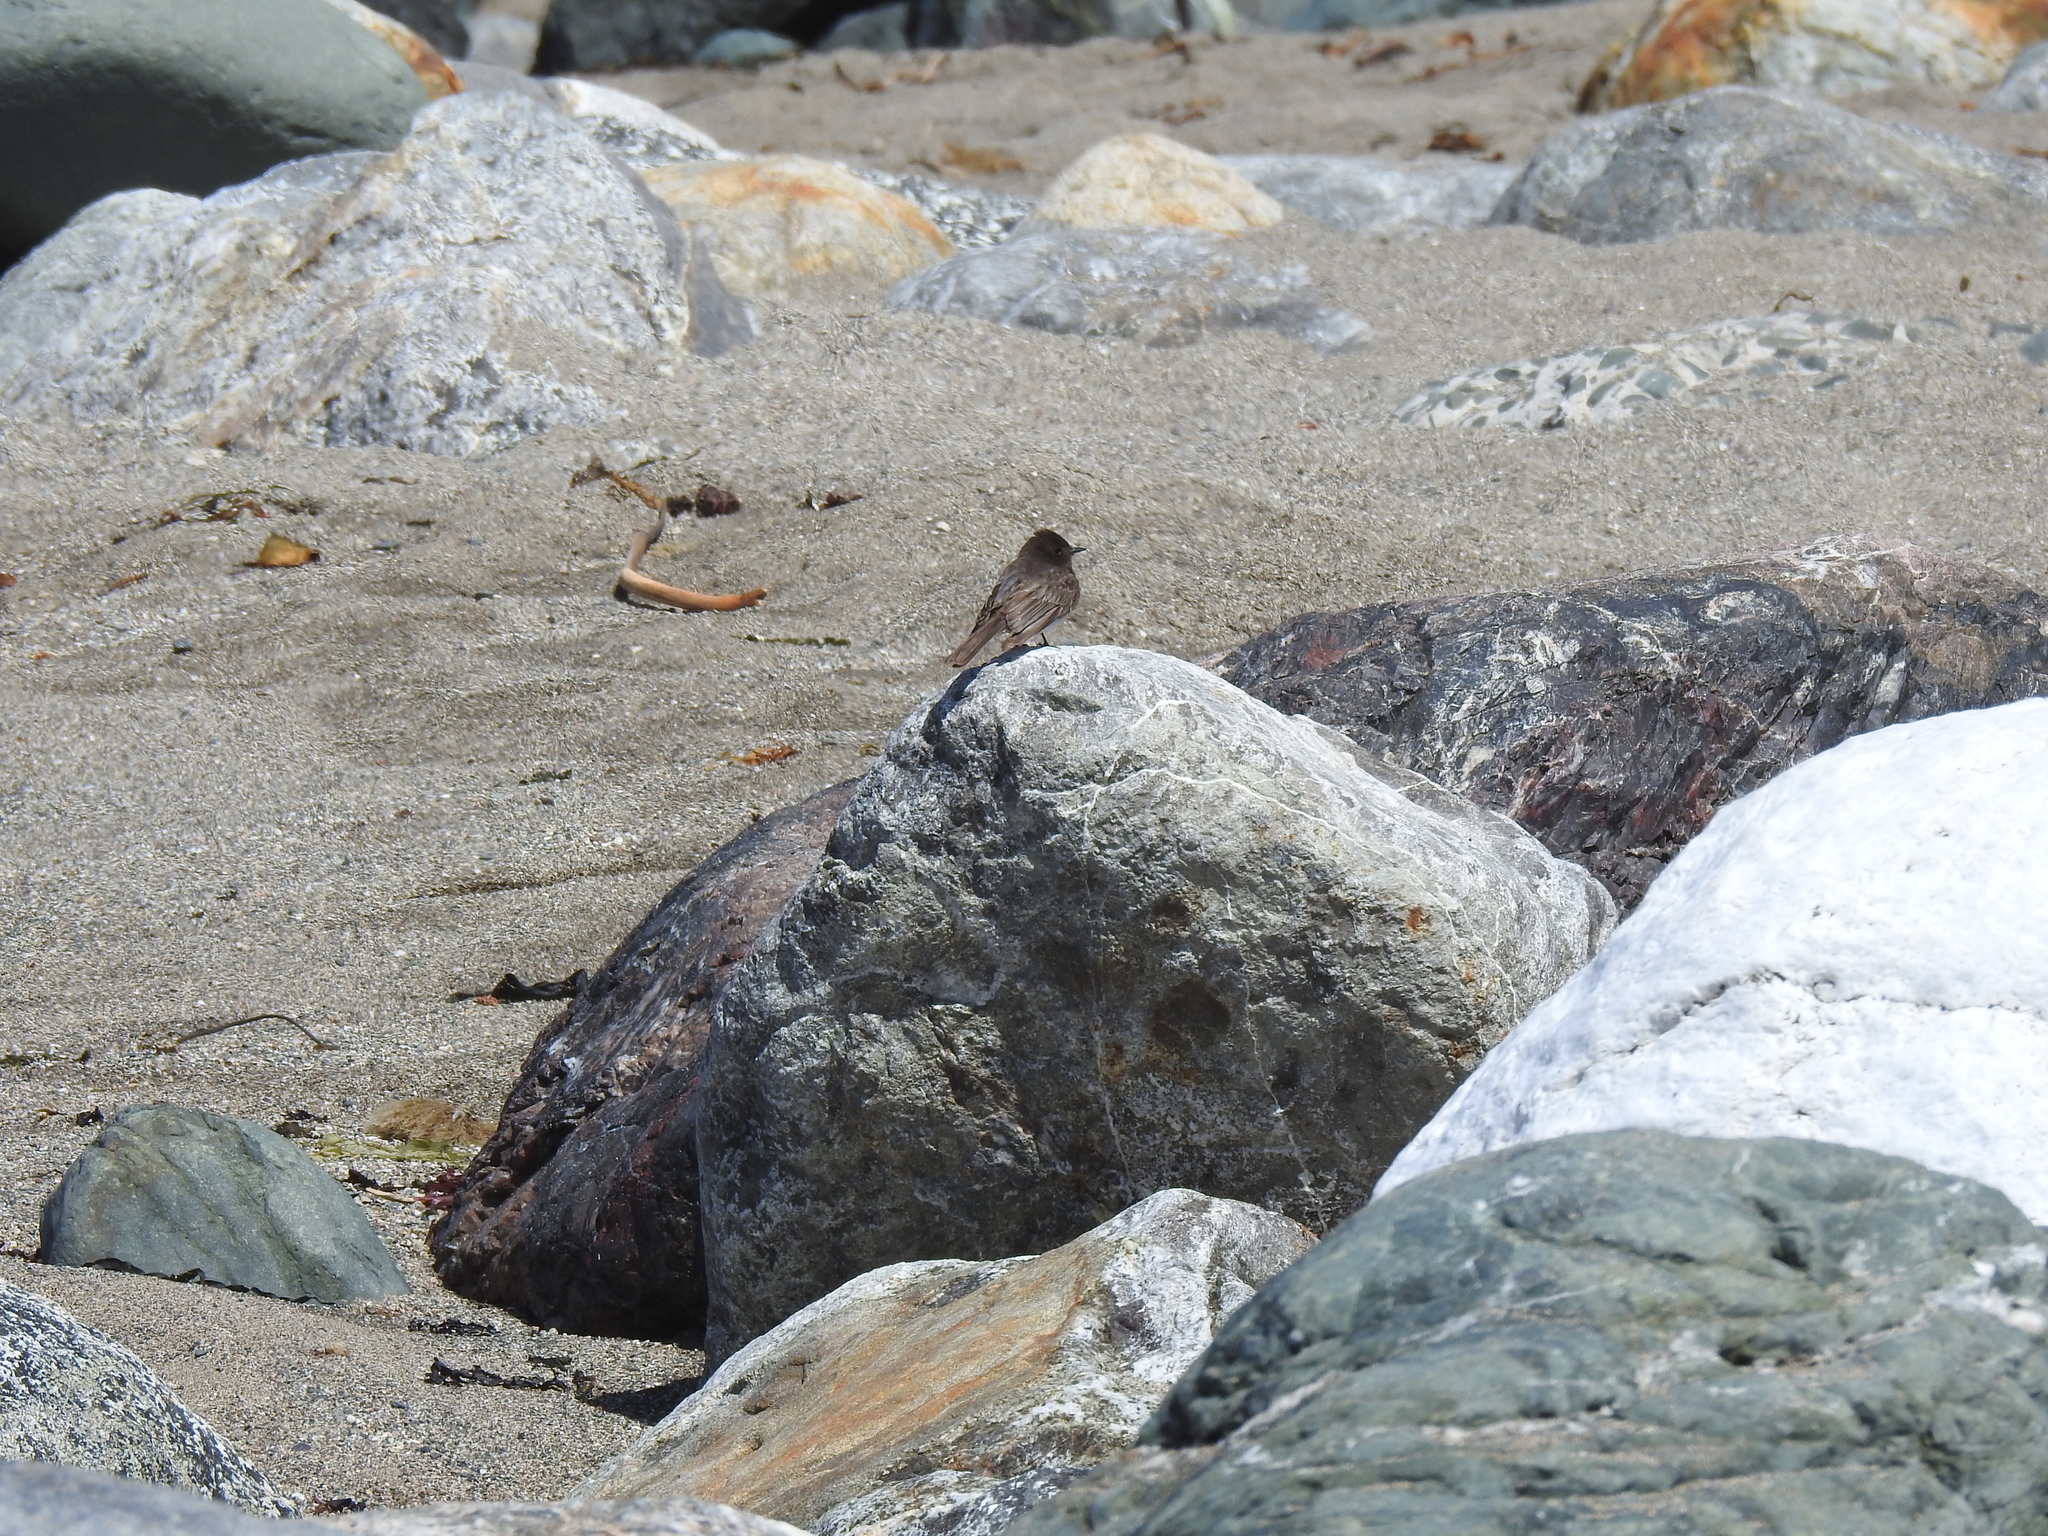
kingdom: Animalia
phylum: Chordata
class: Aves
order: Passeriformes
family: Tyrannidae
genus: Sayornis
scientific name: Sayornis nigricans
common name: Black phoebe
